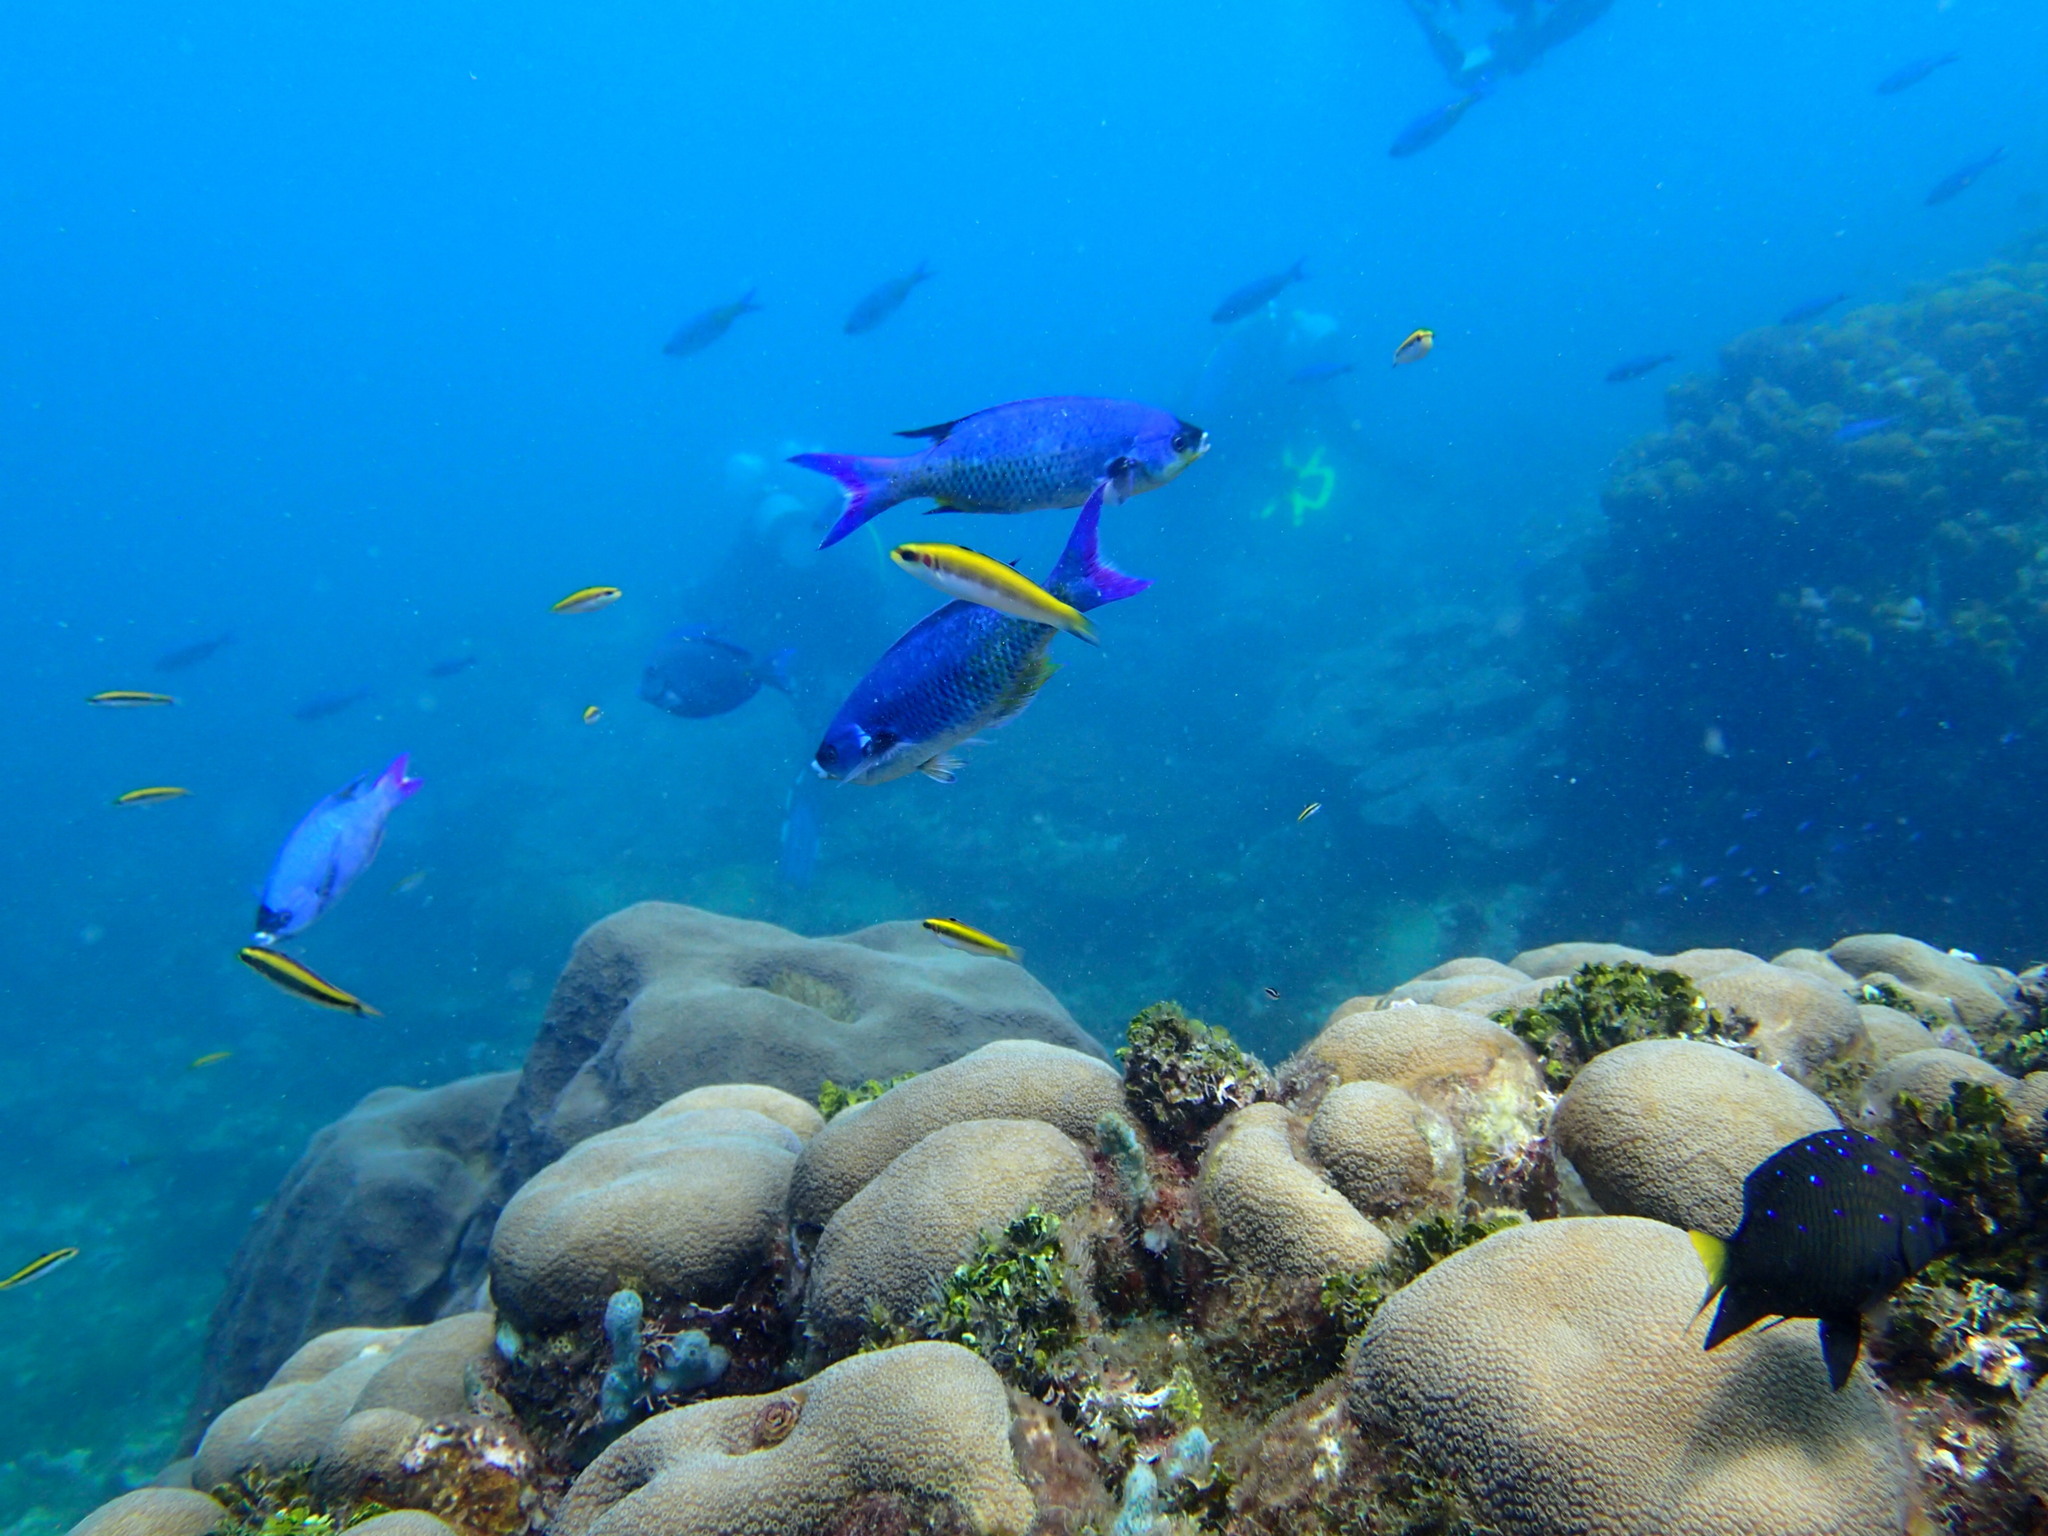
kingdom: Animalia
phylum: Chordata
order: Perciformes
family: Labridae
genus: Bodianus
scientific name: Bodianus
